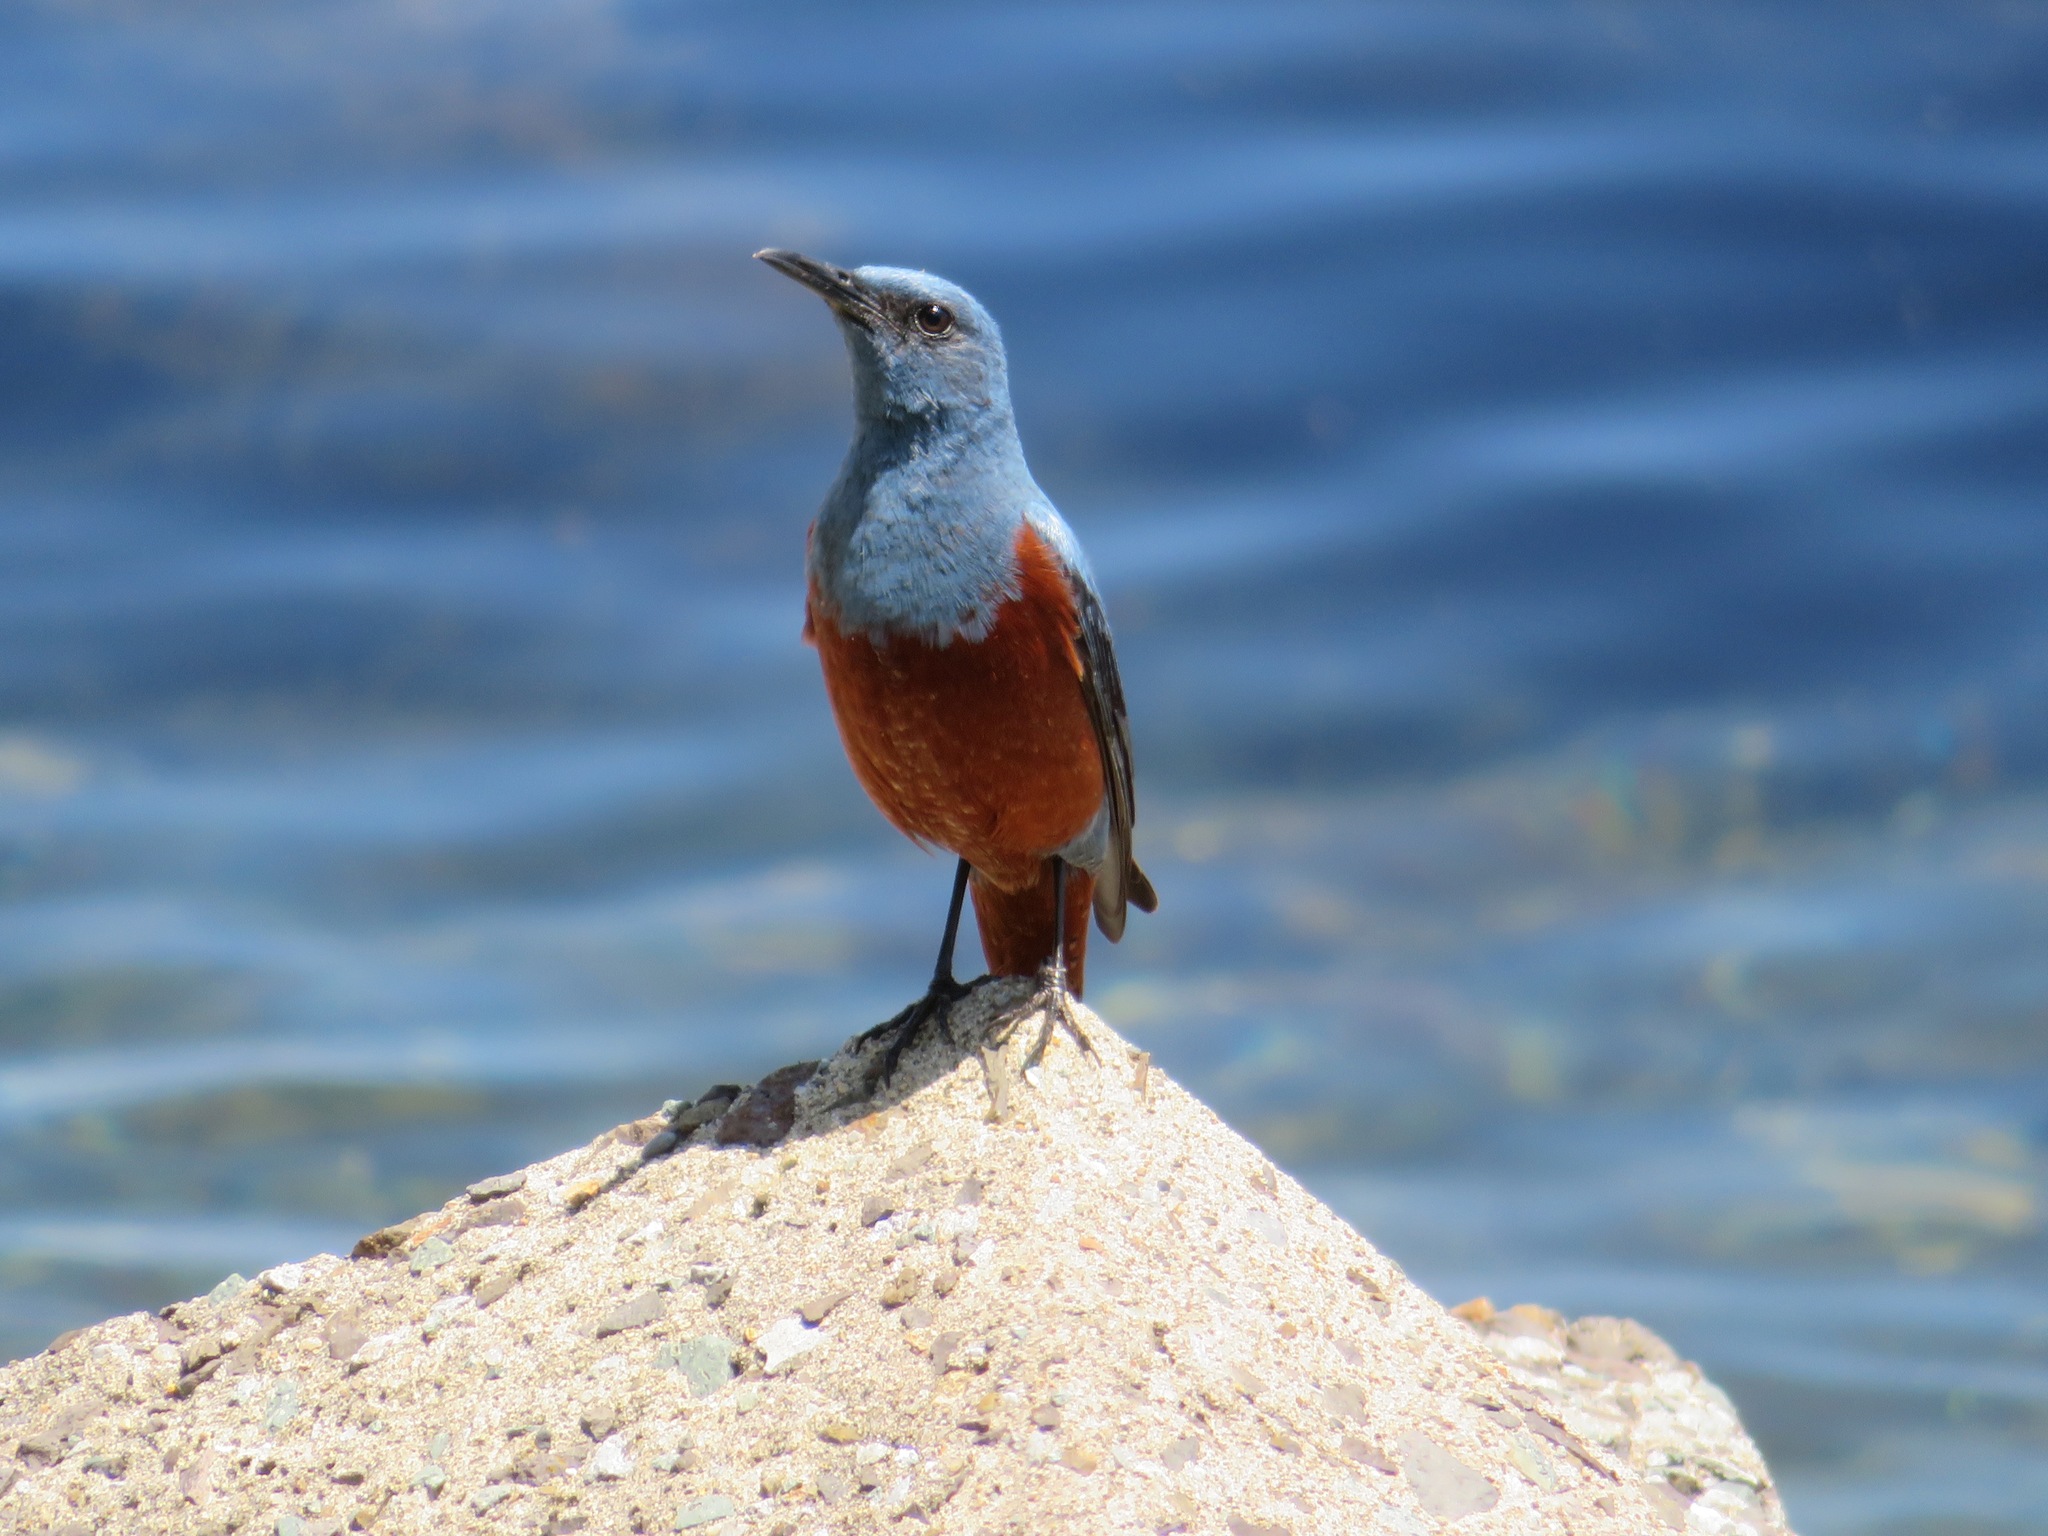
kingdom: Animalia
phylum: Chordata
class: Aves
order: Passeriformes
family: Muscicapidae
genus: Monticola
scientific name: Monticola solitarius
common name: Blue rock thrush
